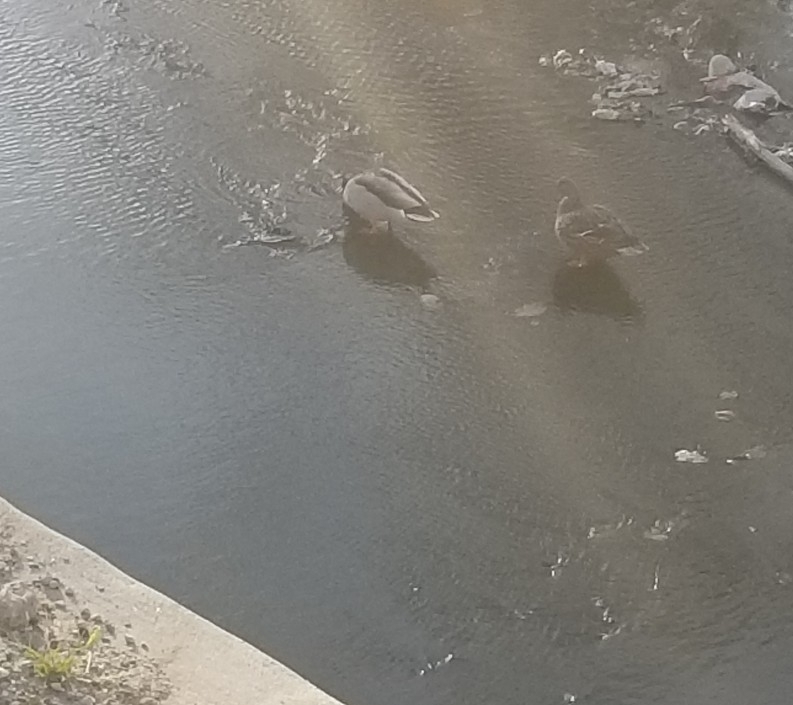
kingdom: Animalia
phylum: Chordata
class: Aves
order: Anseriformes
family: Anatidae
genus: Anas
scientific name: Anas platyrhynchos
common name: Mallard
